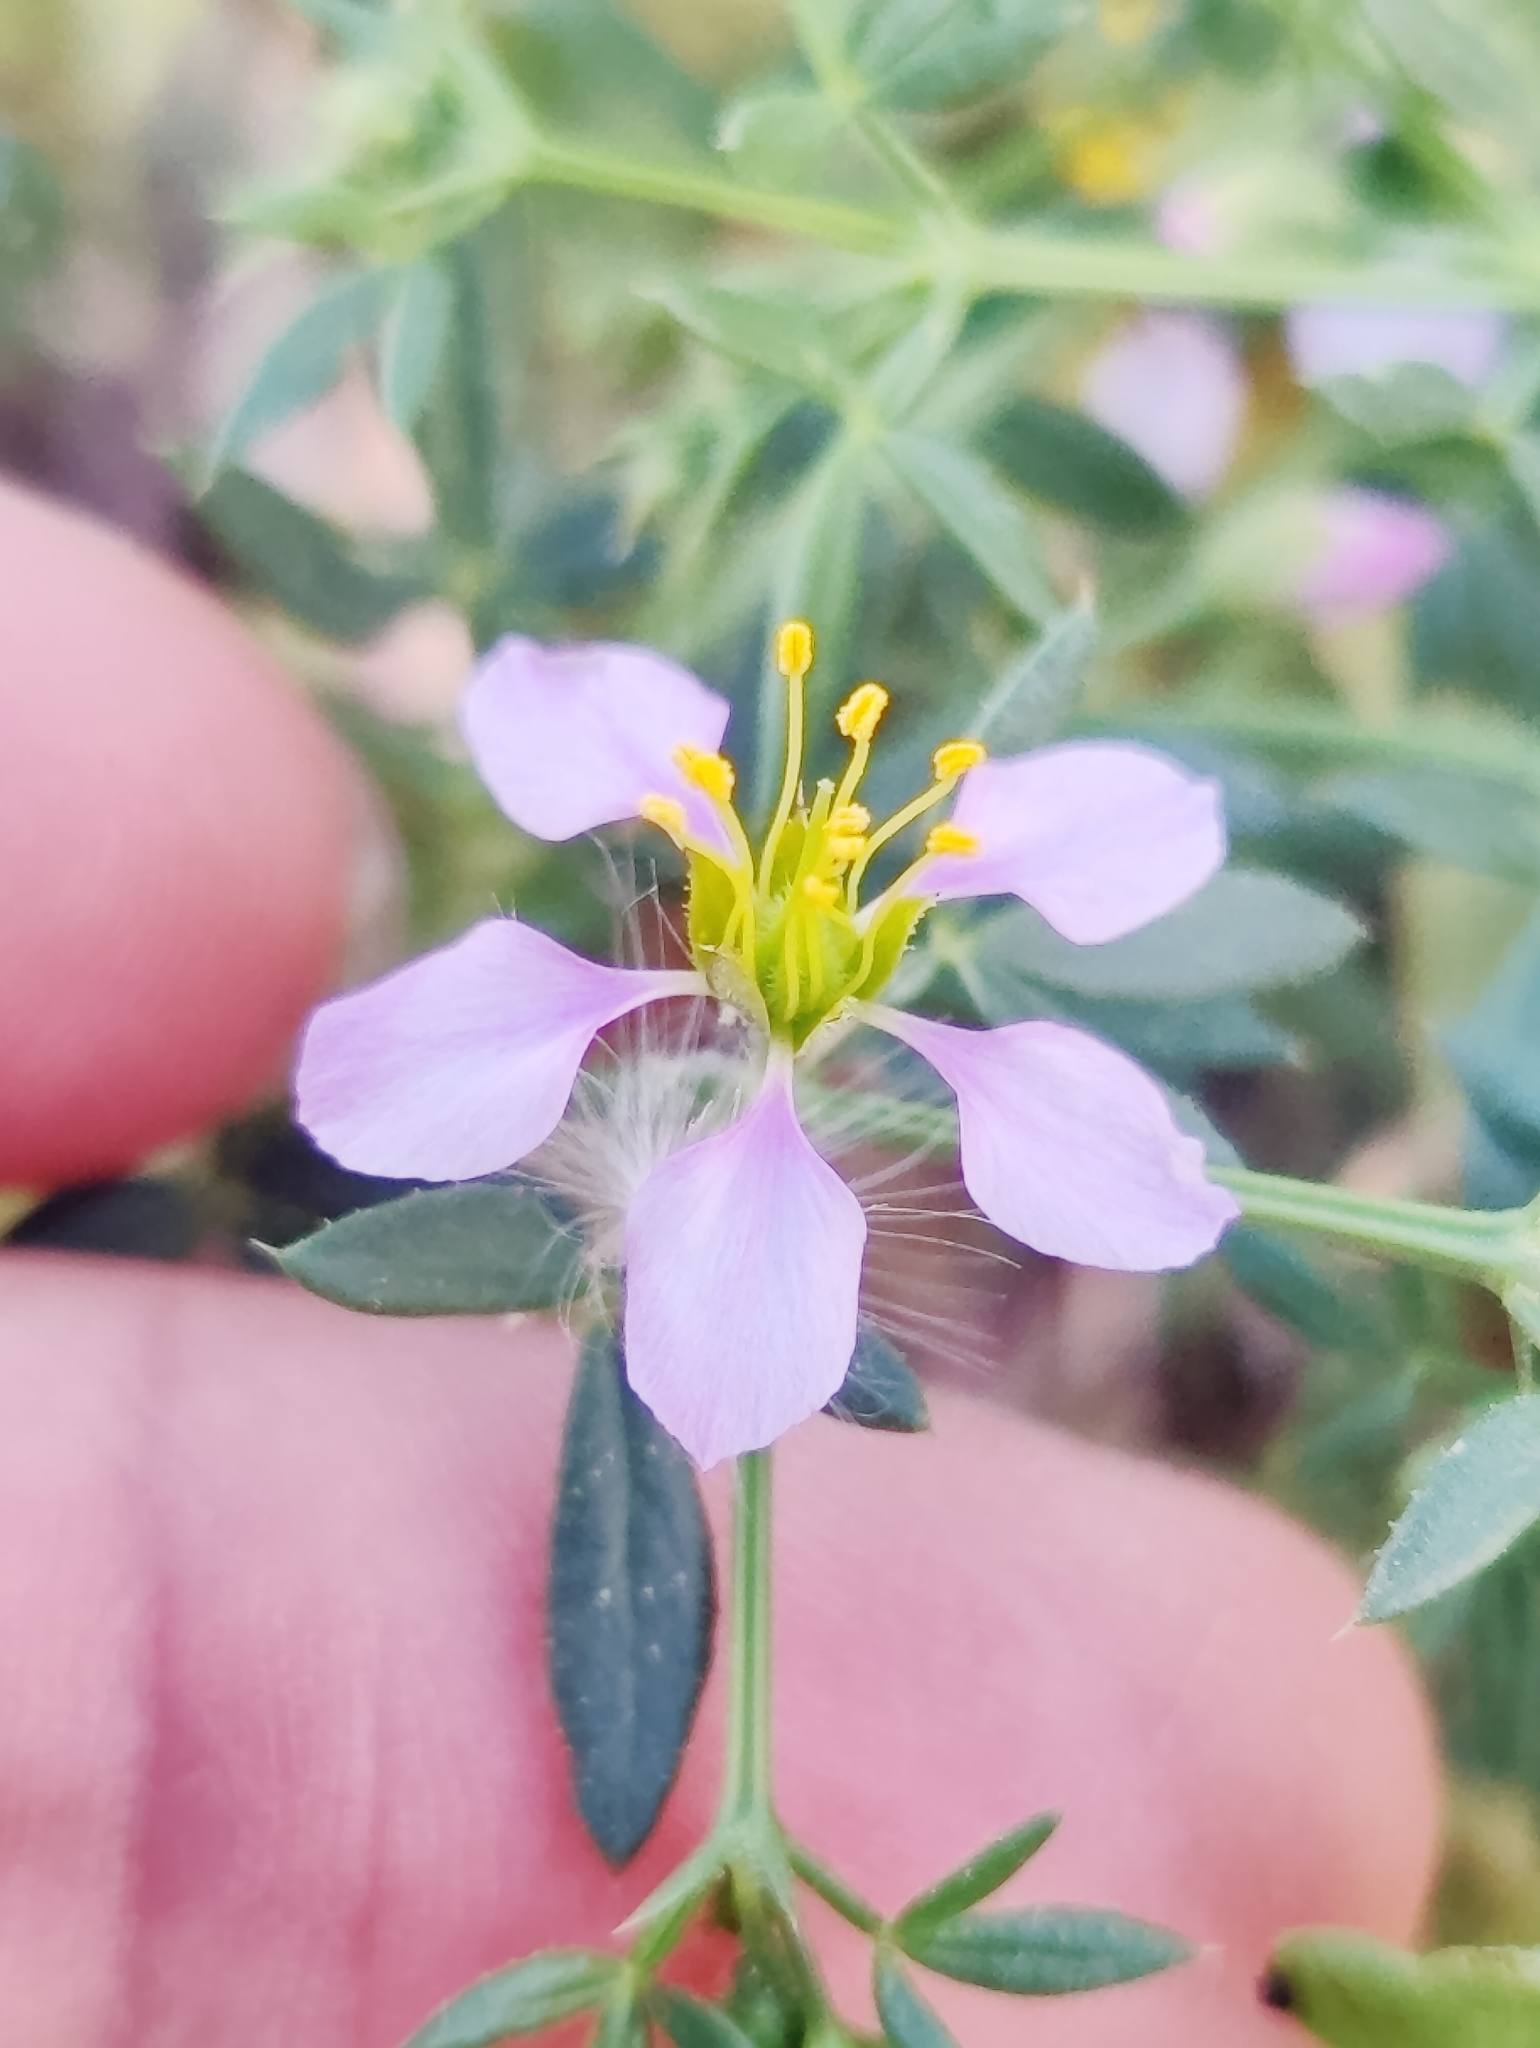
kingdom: Plantae
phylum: Tracheophyta
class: Magnoliopsida
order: Zygophyllales
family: Zygophyllaceae
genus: Fagonia
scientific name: Fagonia cretica
